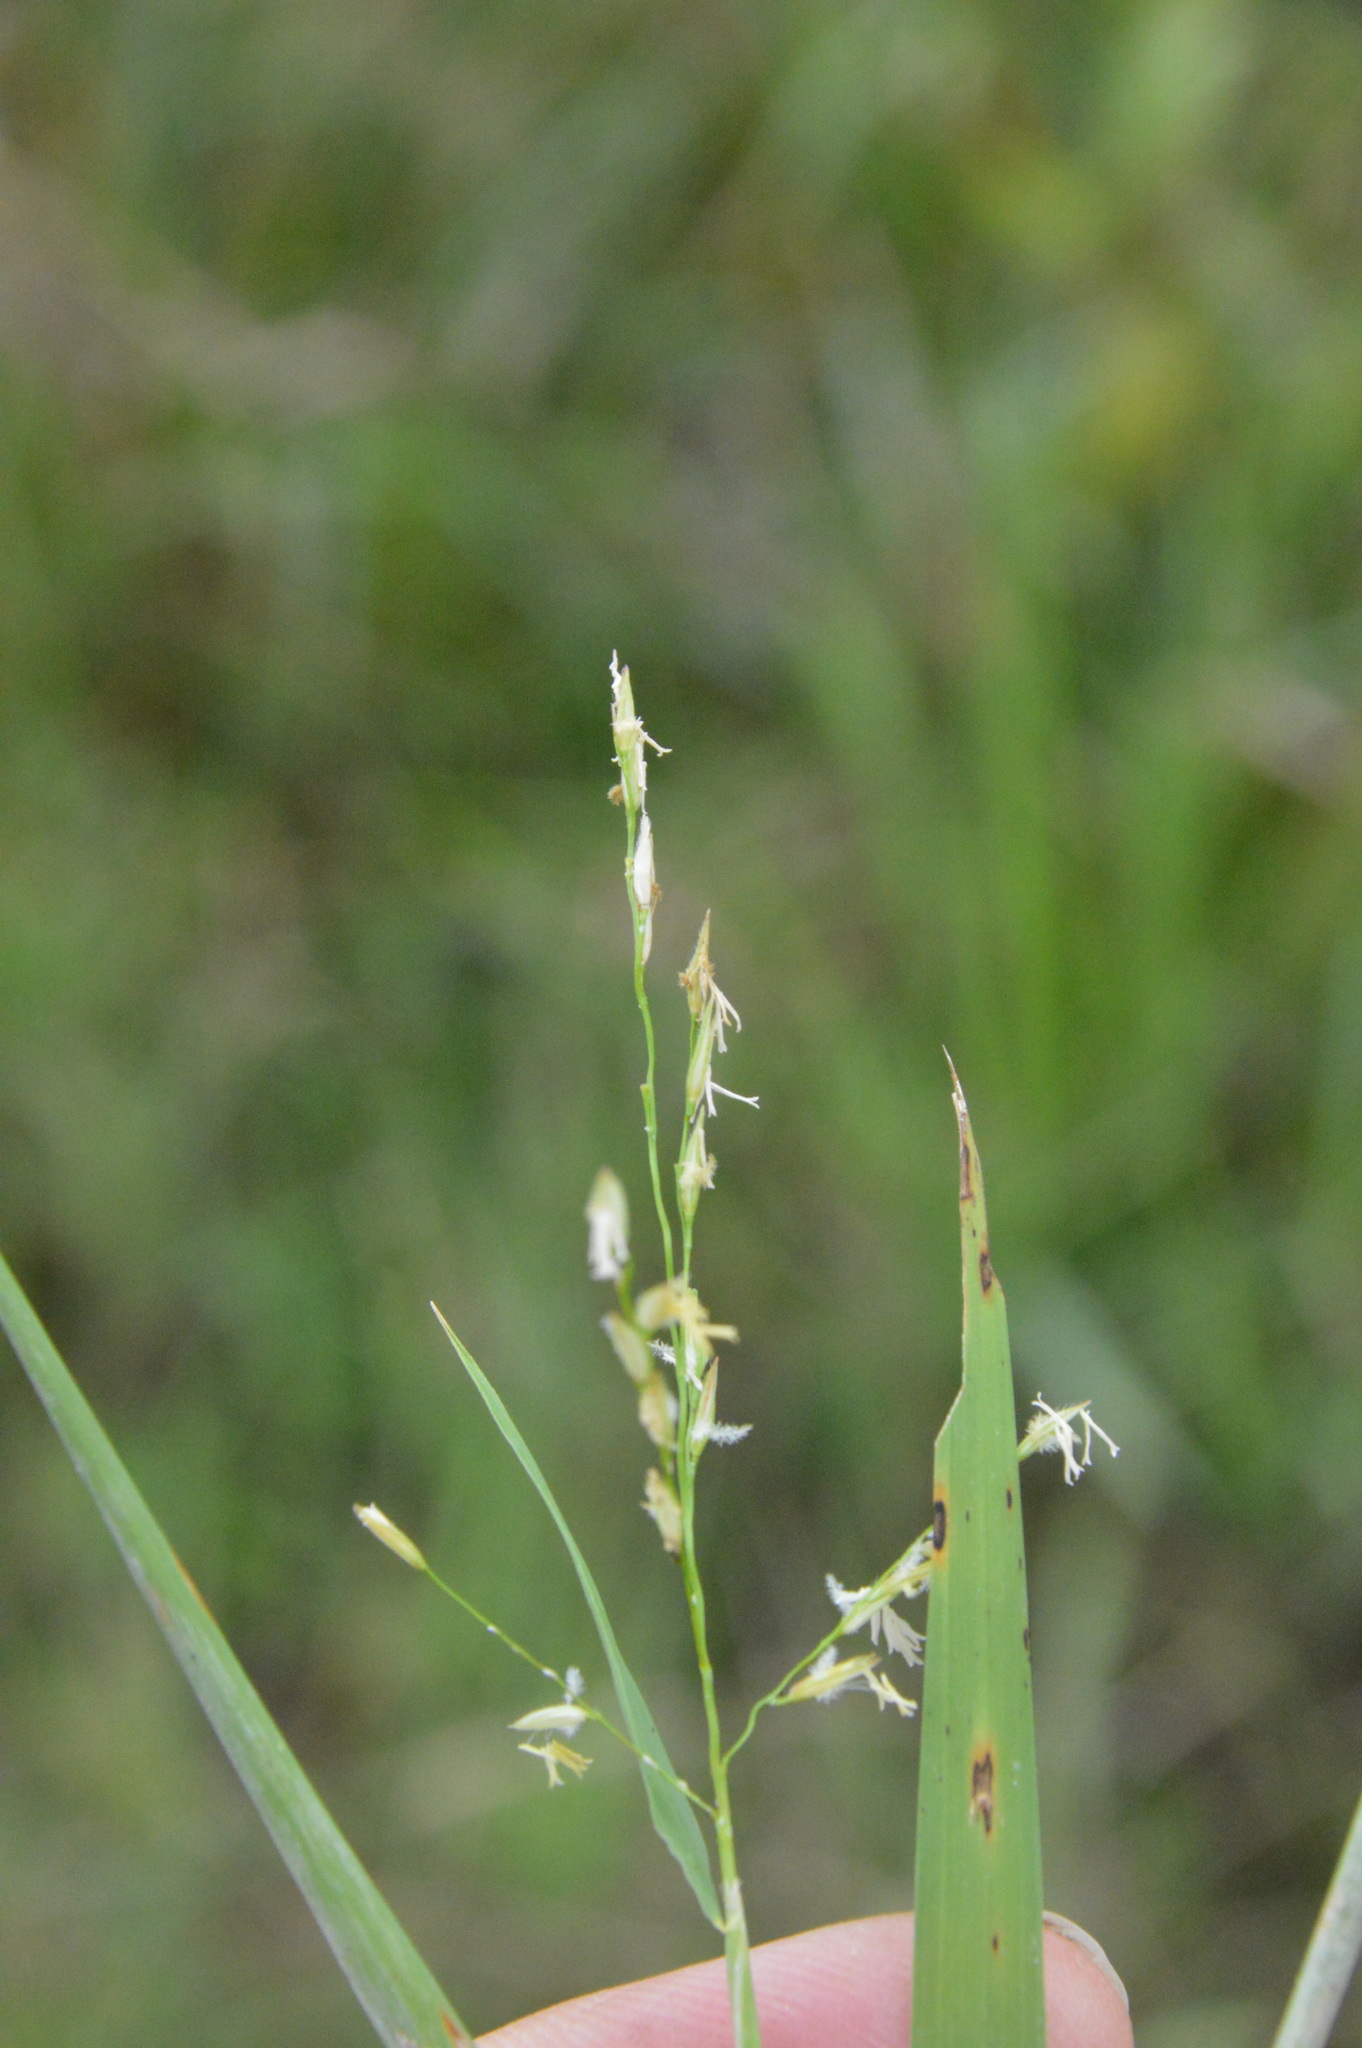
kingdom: Plantae
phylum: Tracheophyta
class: Liliopsida
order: Poales
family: Poaceae
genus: Leersia
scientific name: Leersia hexandra
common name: Southern cut grass
